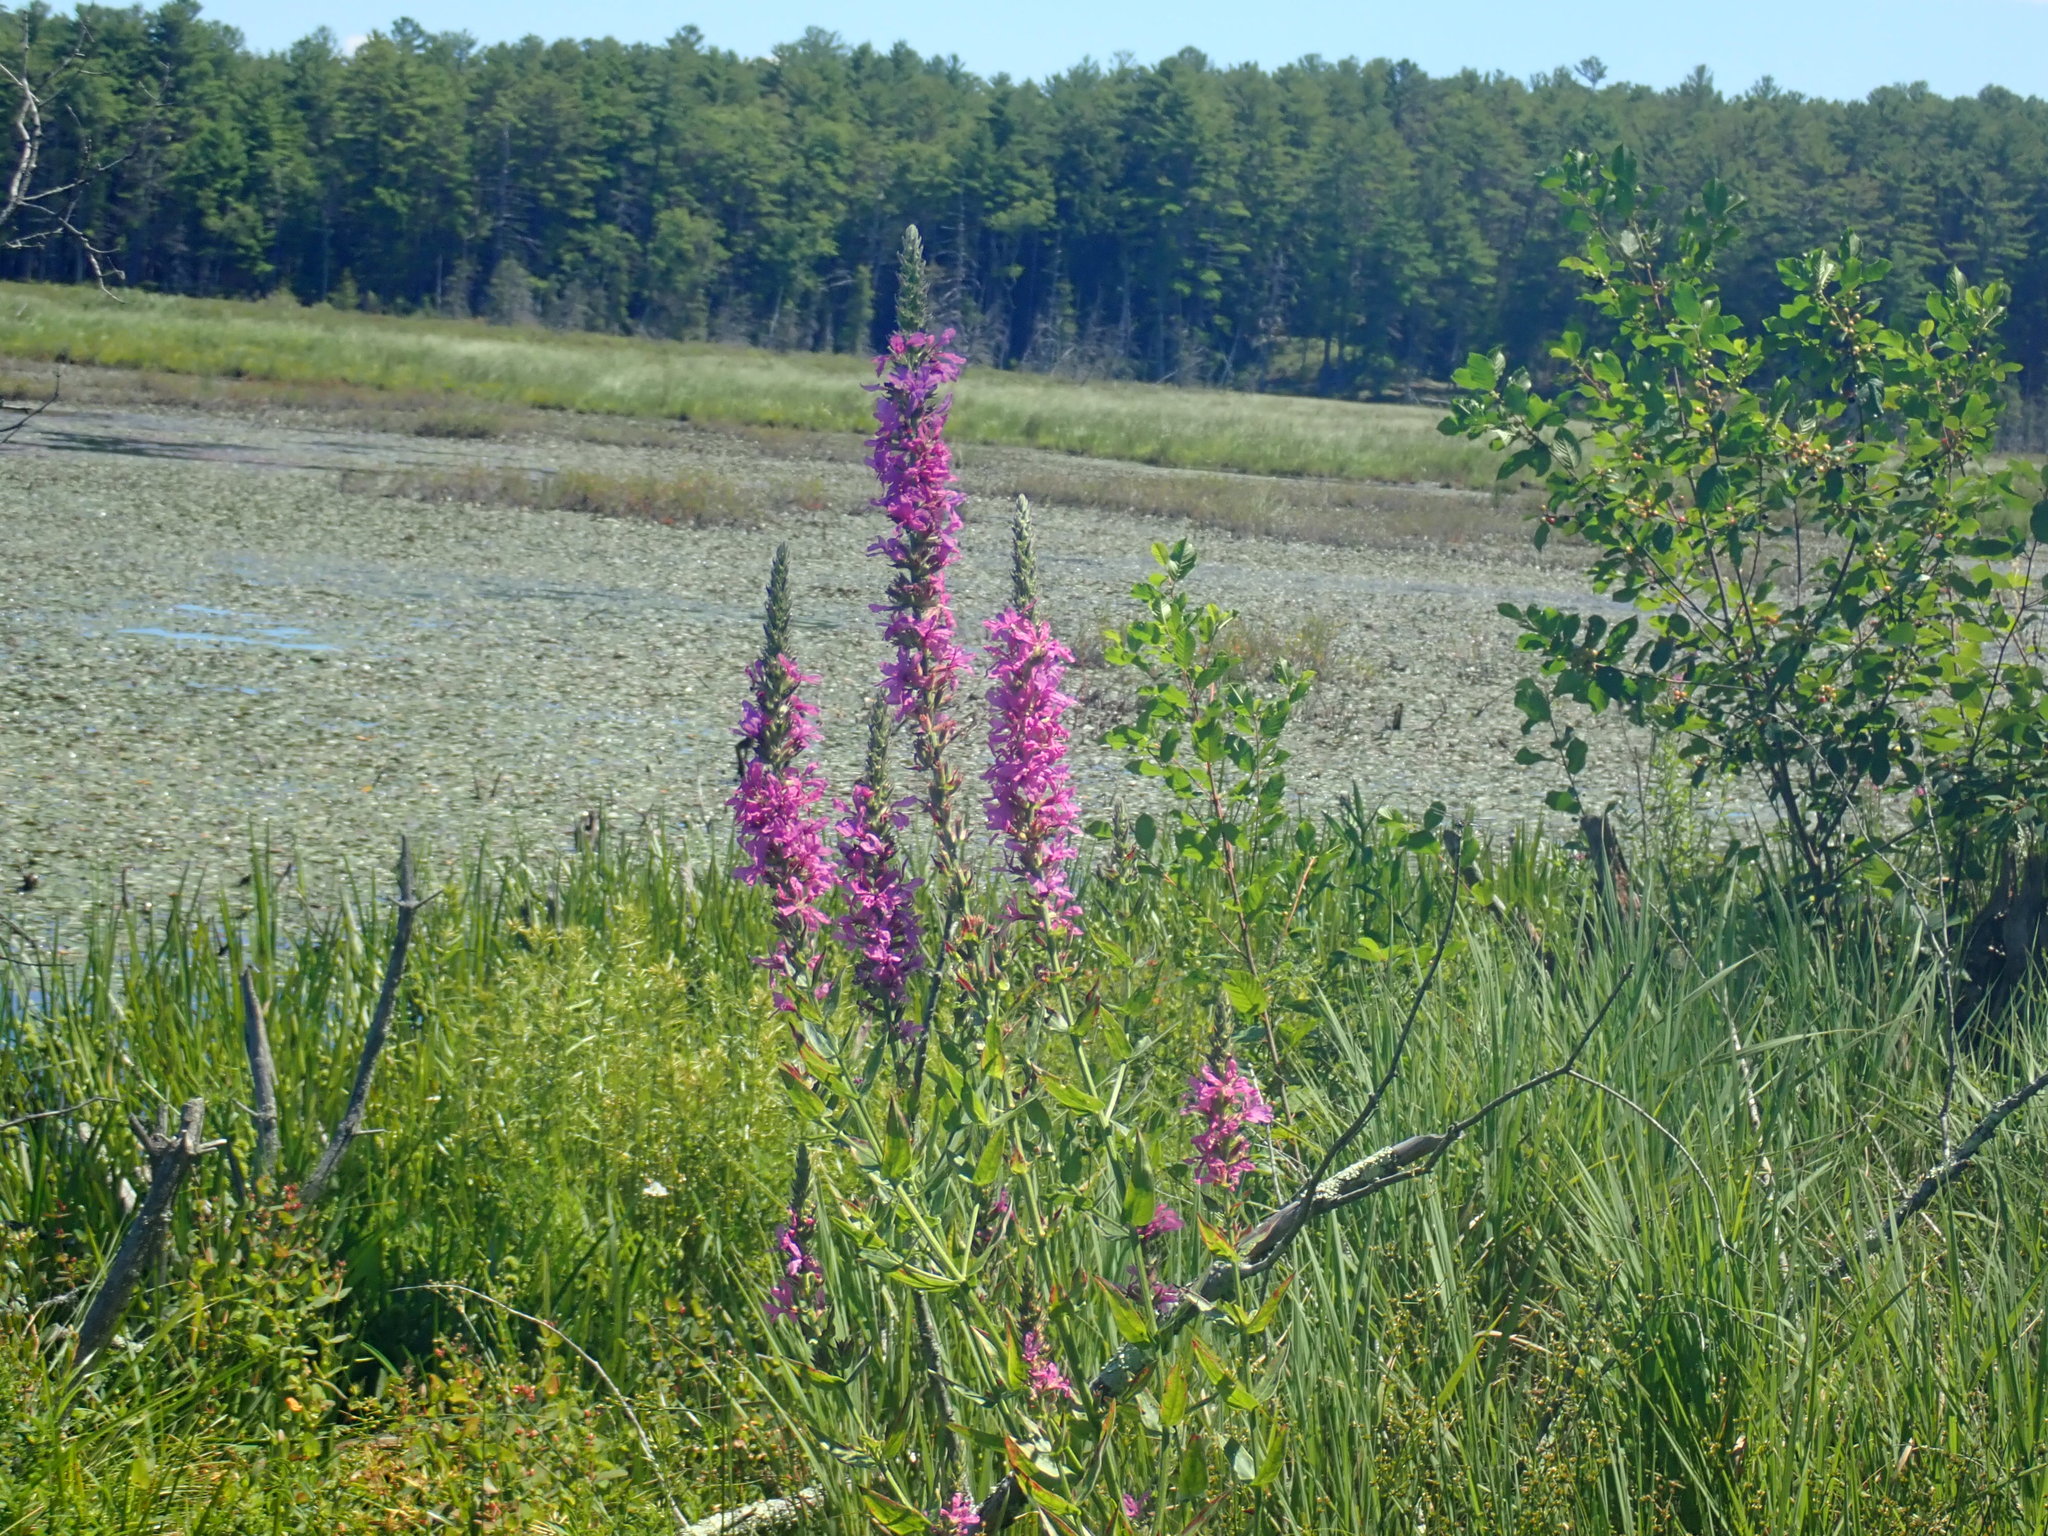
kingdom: Plantae
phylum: Tracheophyta
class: Magnoliopsida
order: Myrtales
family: Lythraceae
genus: Lythrum
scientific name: Lythrum salicaria
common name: Purple loosestrife
